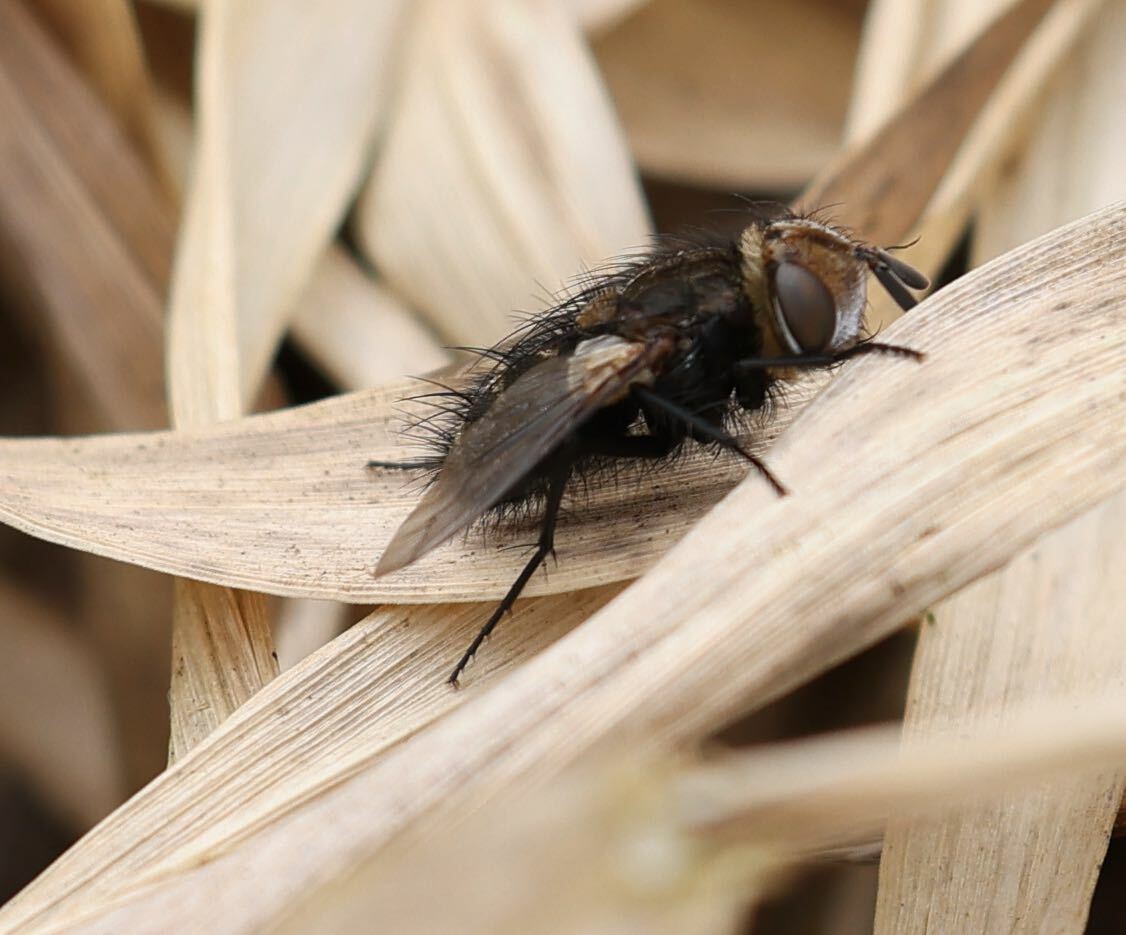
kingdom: Animalia
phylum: Arthropoda
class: Insecta
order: Diptera
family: Tachinidae
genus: Gonia
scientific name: Gonia picea
